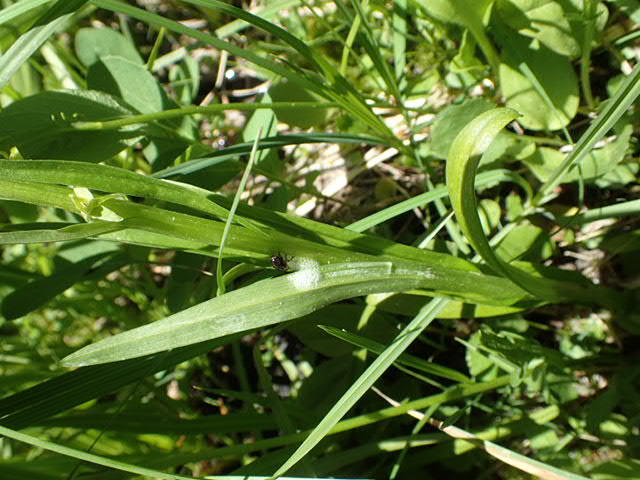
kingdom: Plantae
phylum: Tracheophyta
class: Liliopsida
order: Asparagales
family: Orchidaceae
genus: Platanthera
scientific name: Platanthera stricta
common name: Slender bog orchid
